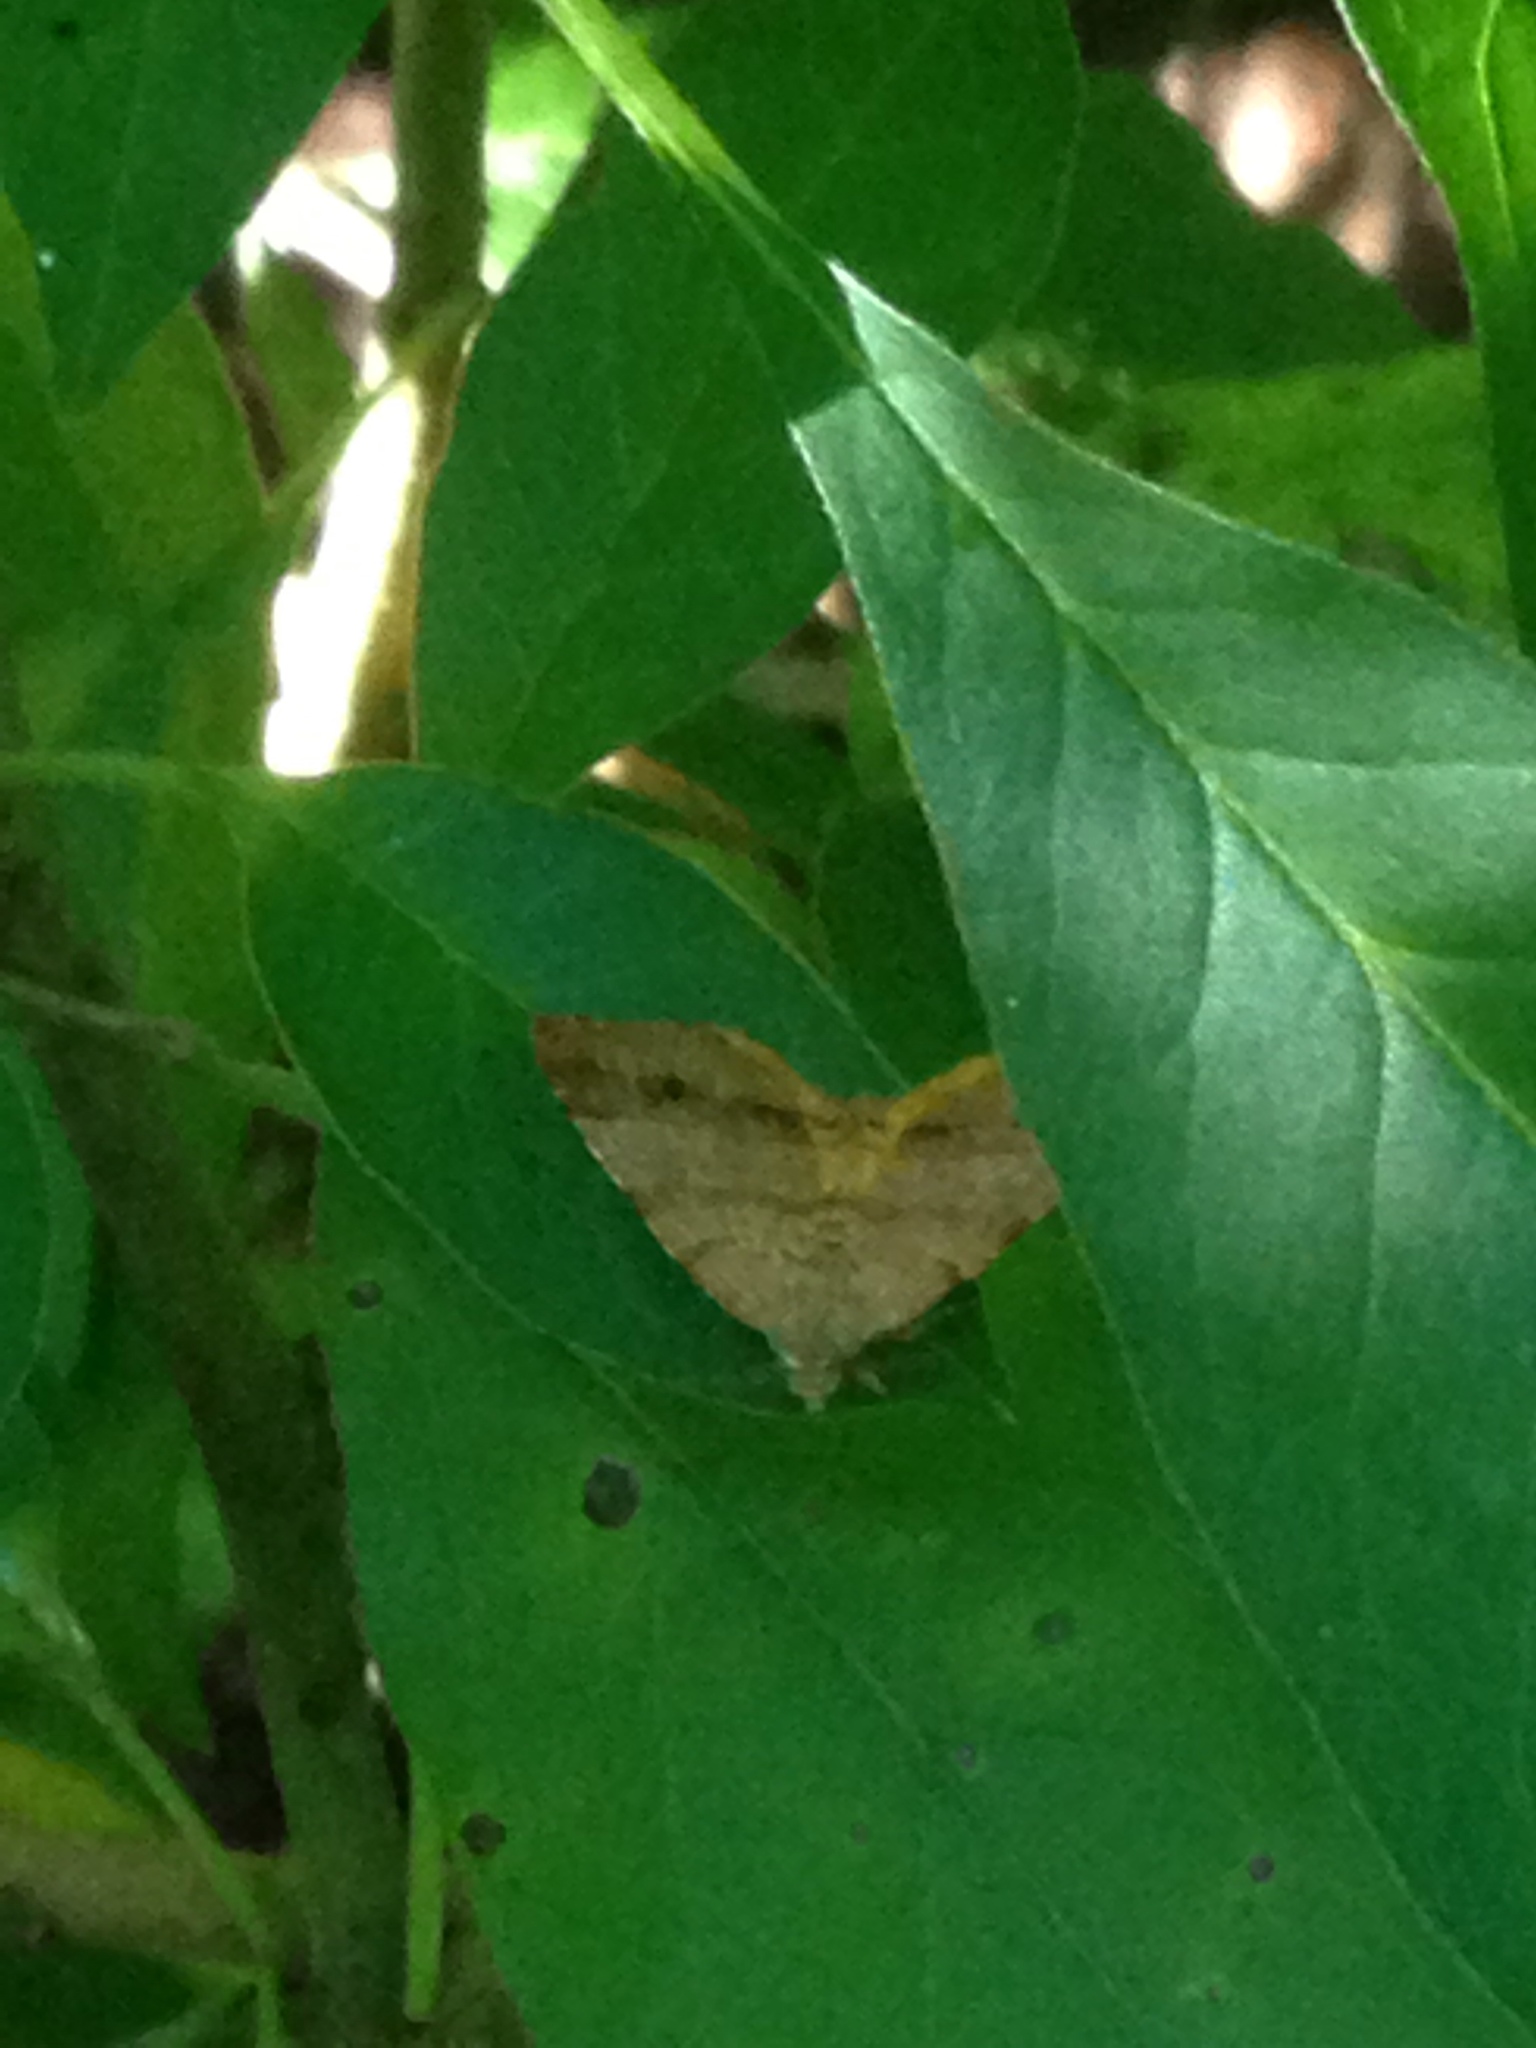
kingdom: Animalia
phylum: Arthropoda
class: Insecta
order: Lepidoptera
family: Geometridae
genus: Mellilla
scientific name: Mellilla xanthometata
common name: Orange wing moth
